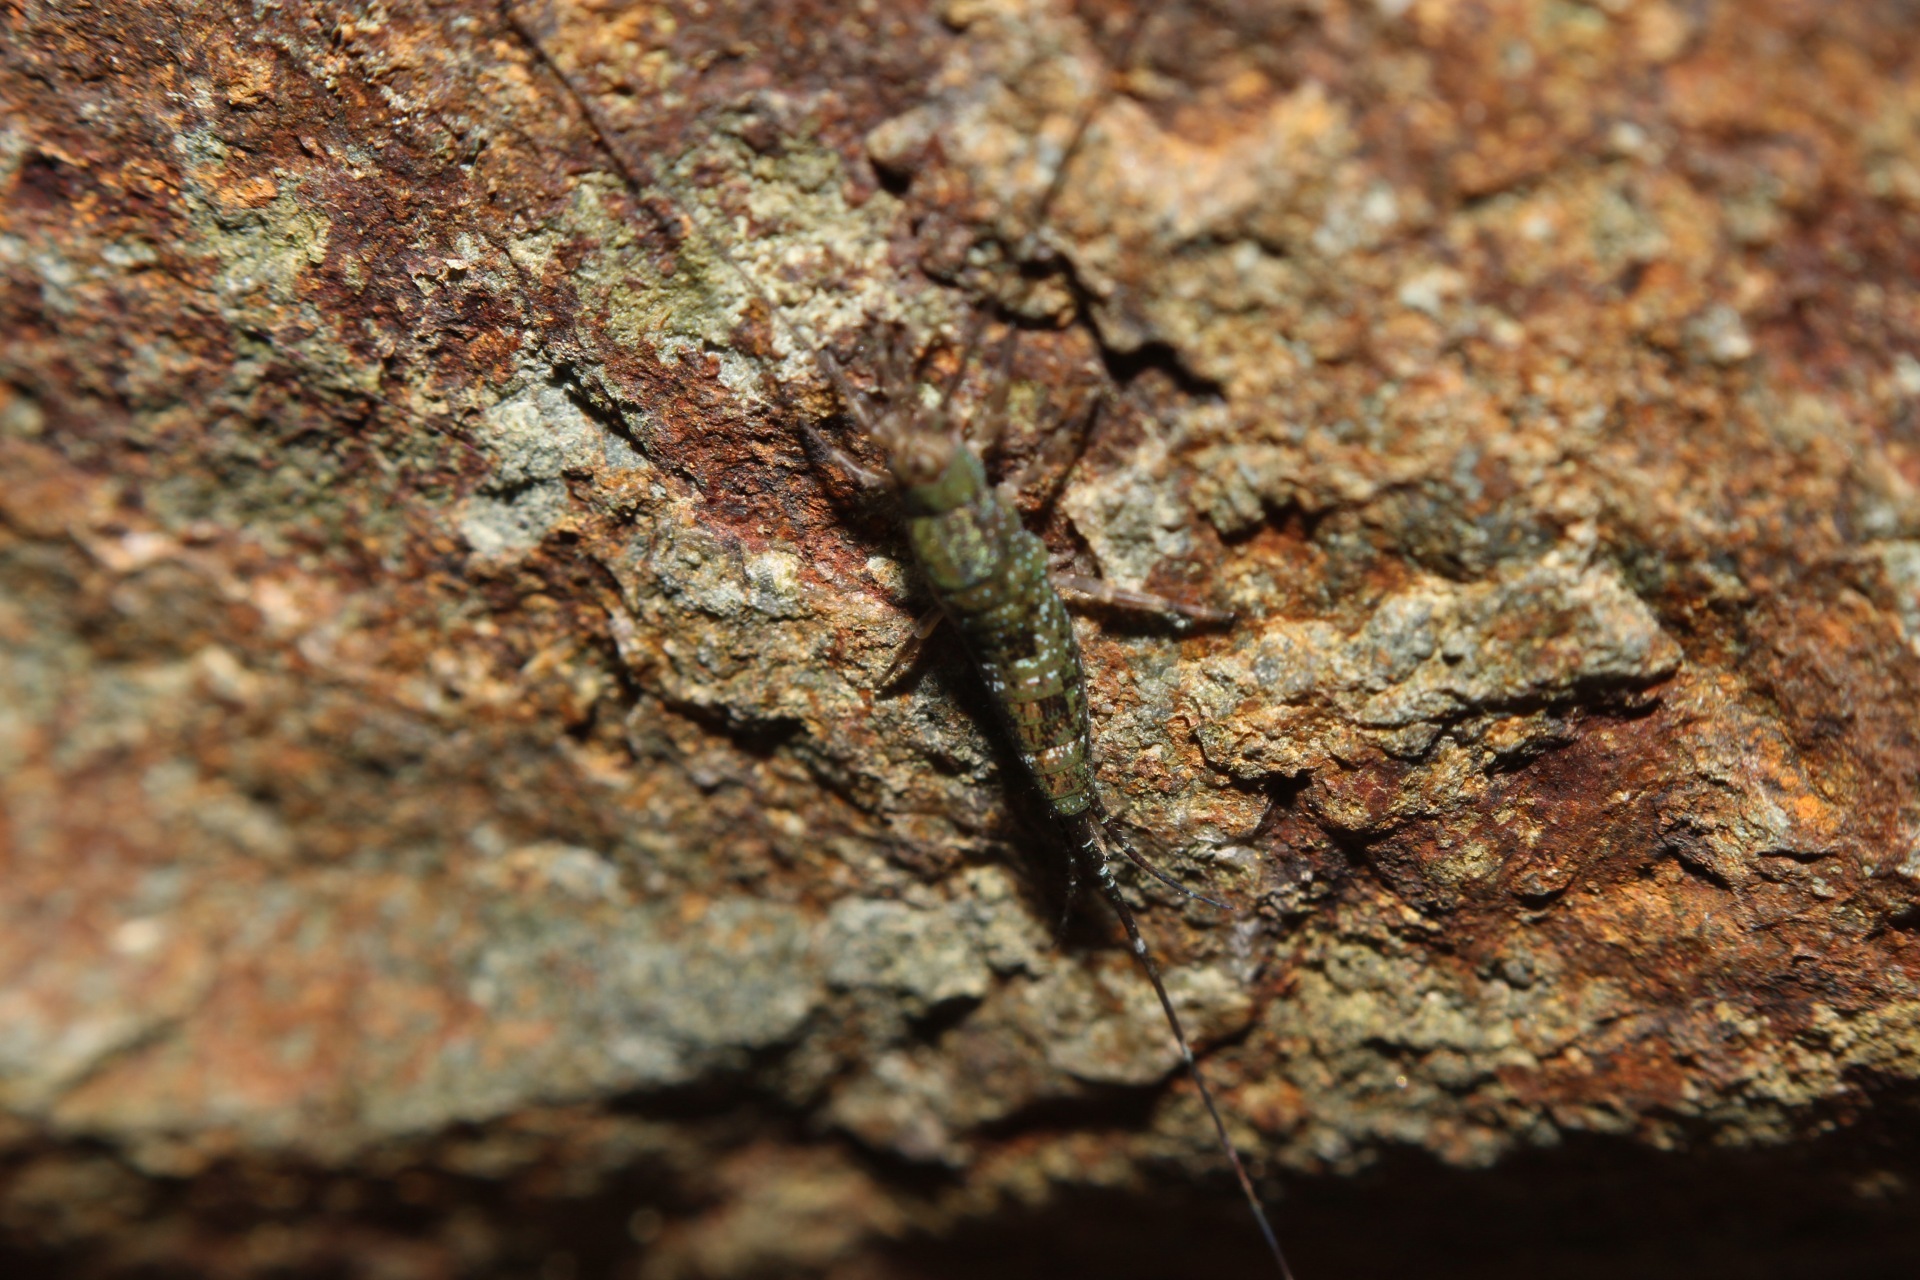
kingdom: Animalia
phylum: Arthropoda
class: Insecta
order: Archaeognatha
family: Machilidae
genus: Petrobius
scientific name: Petrobius brevistylis
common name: Jumping bristletail
